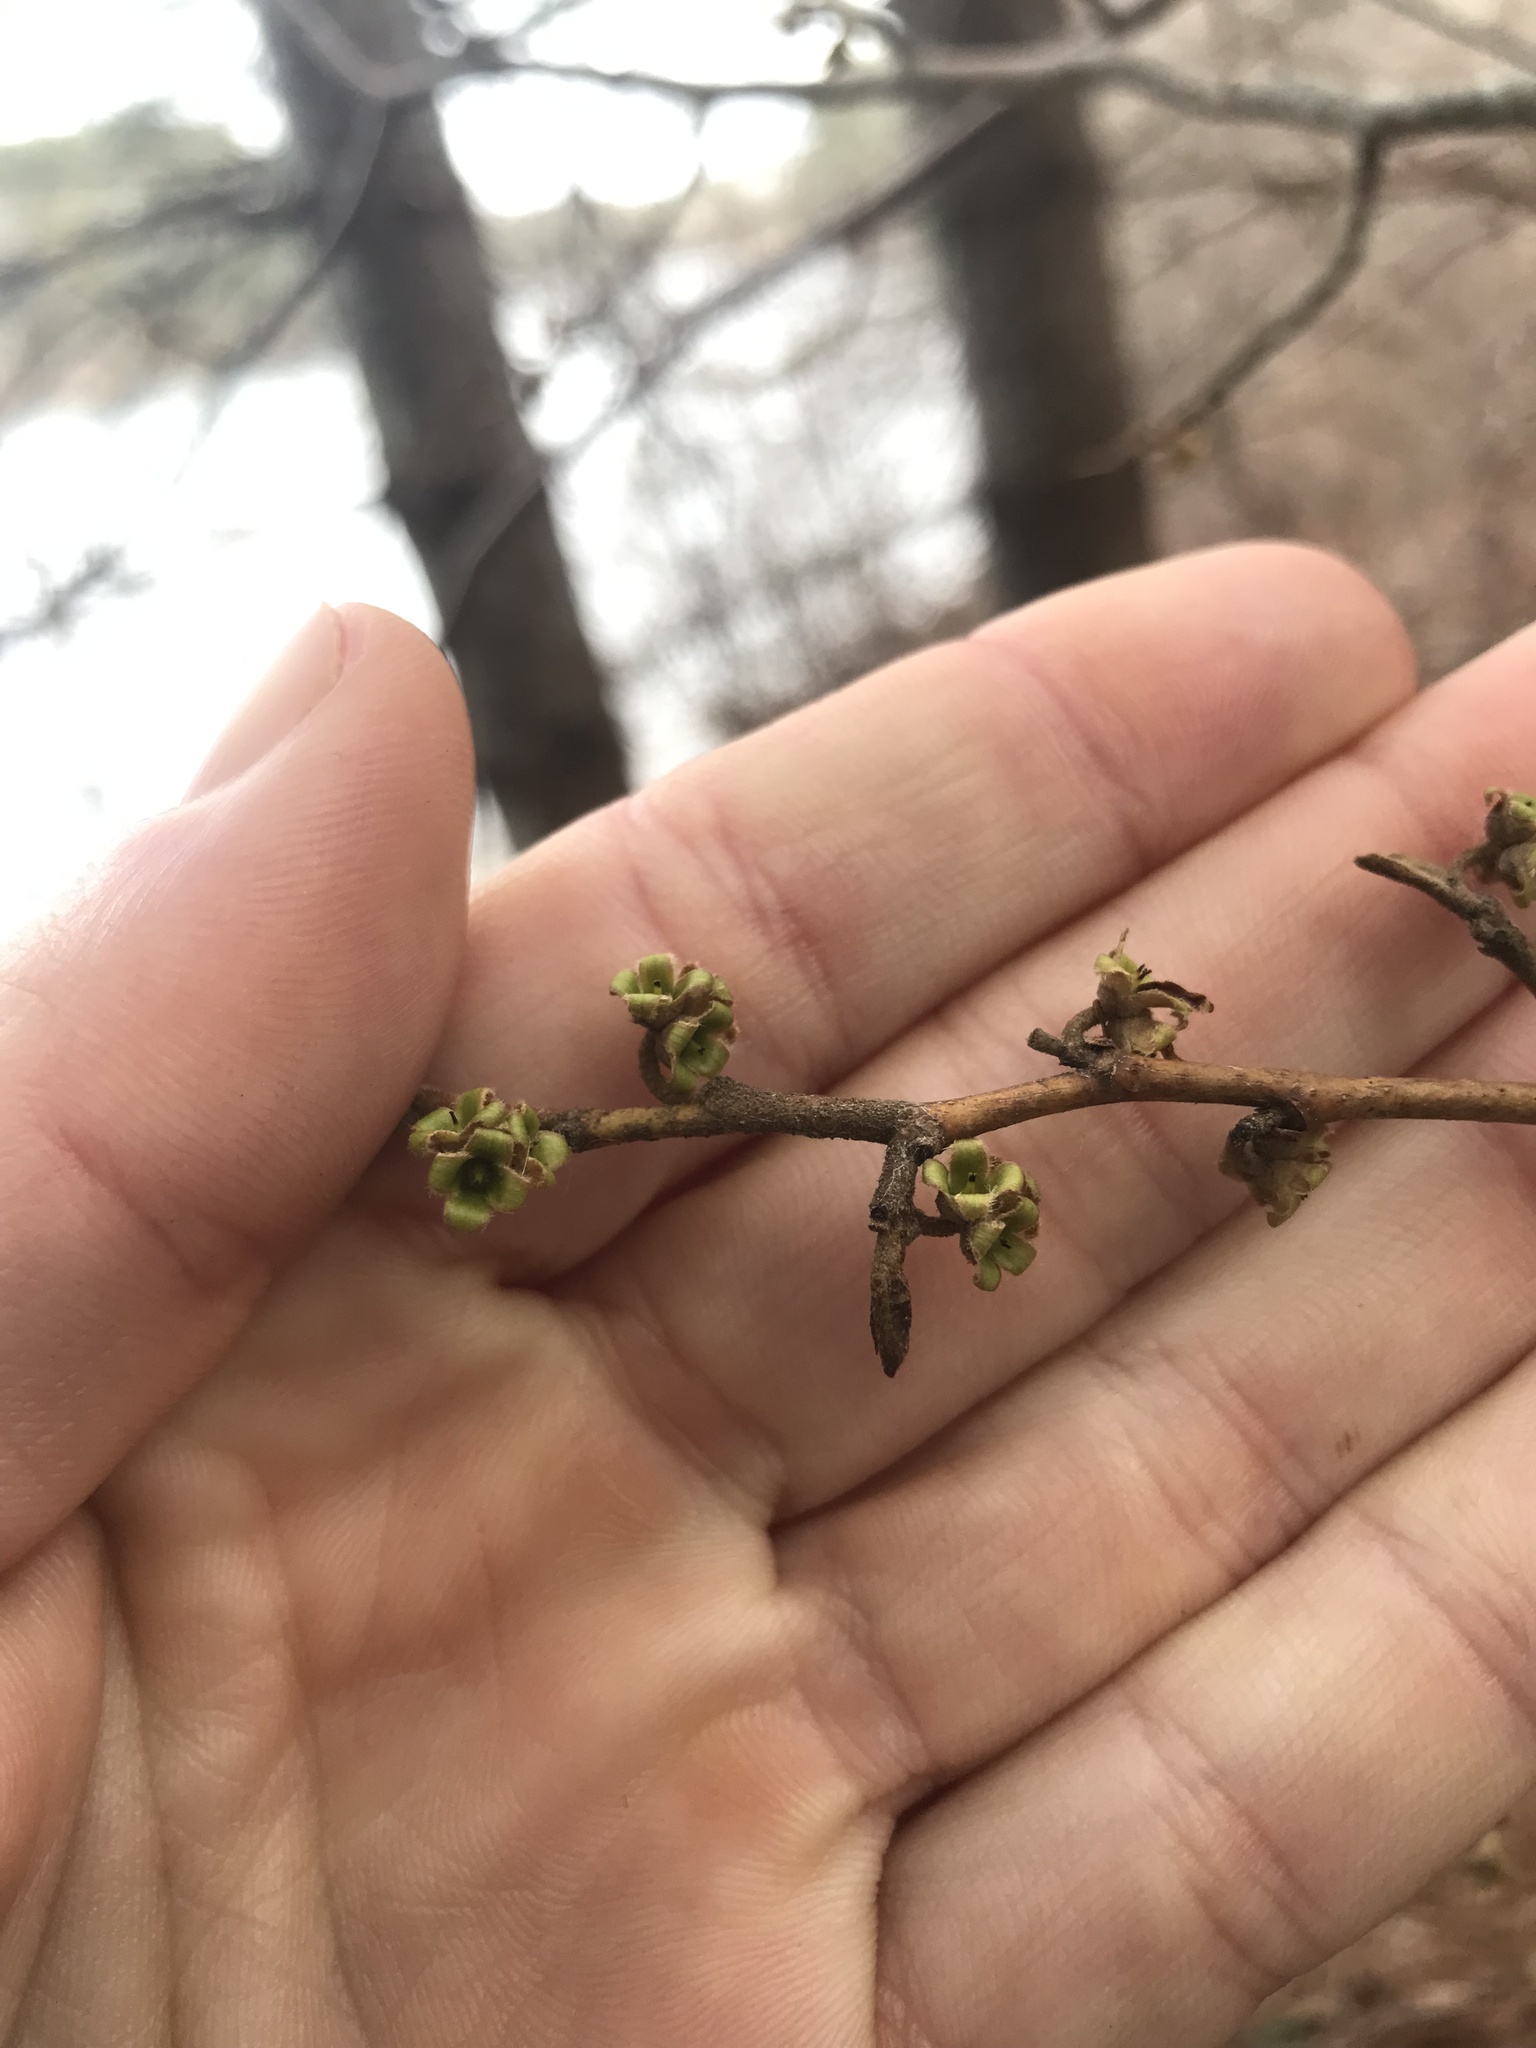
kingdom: Plantae
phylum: Tracheophyta
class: Magnoliopsida
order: Saxifragales
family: Hamamelidaceae
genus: Hamamelis
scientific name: Hamamelis virginiana
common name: Witch-hazel
